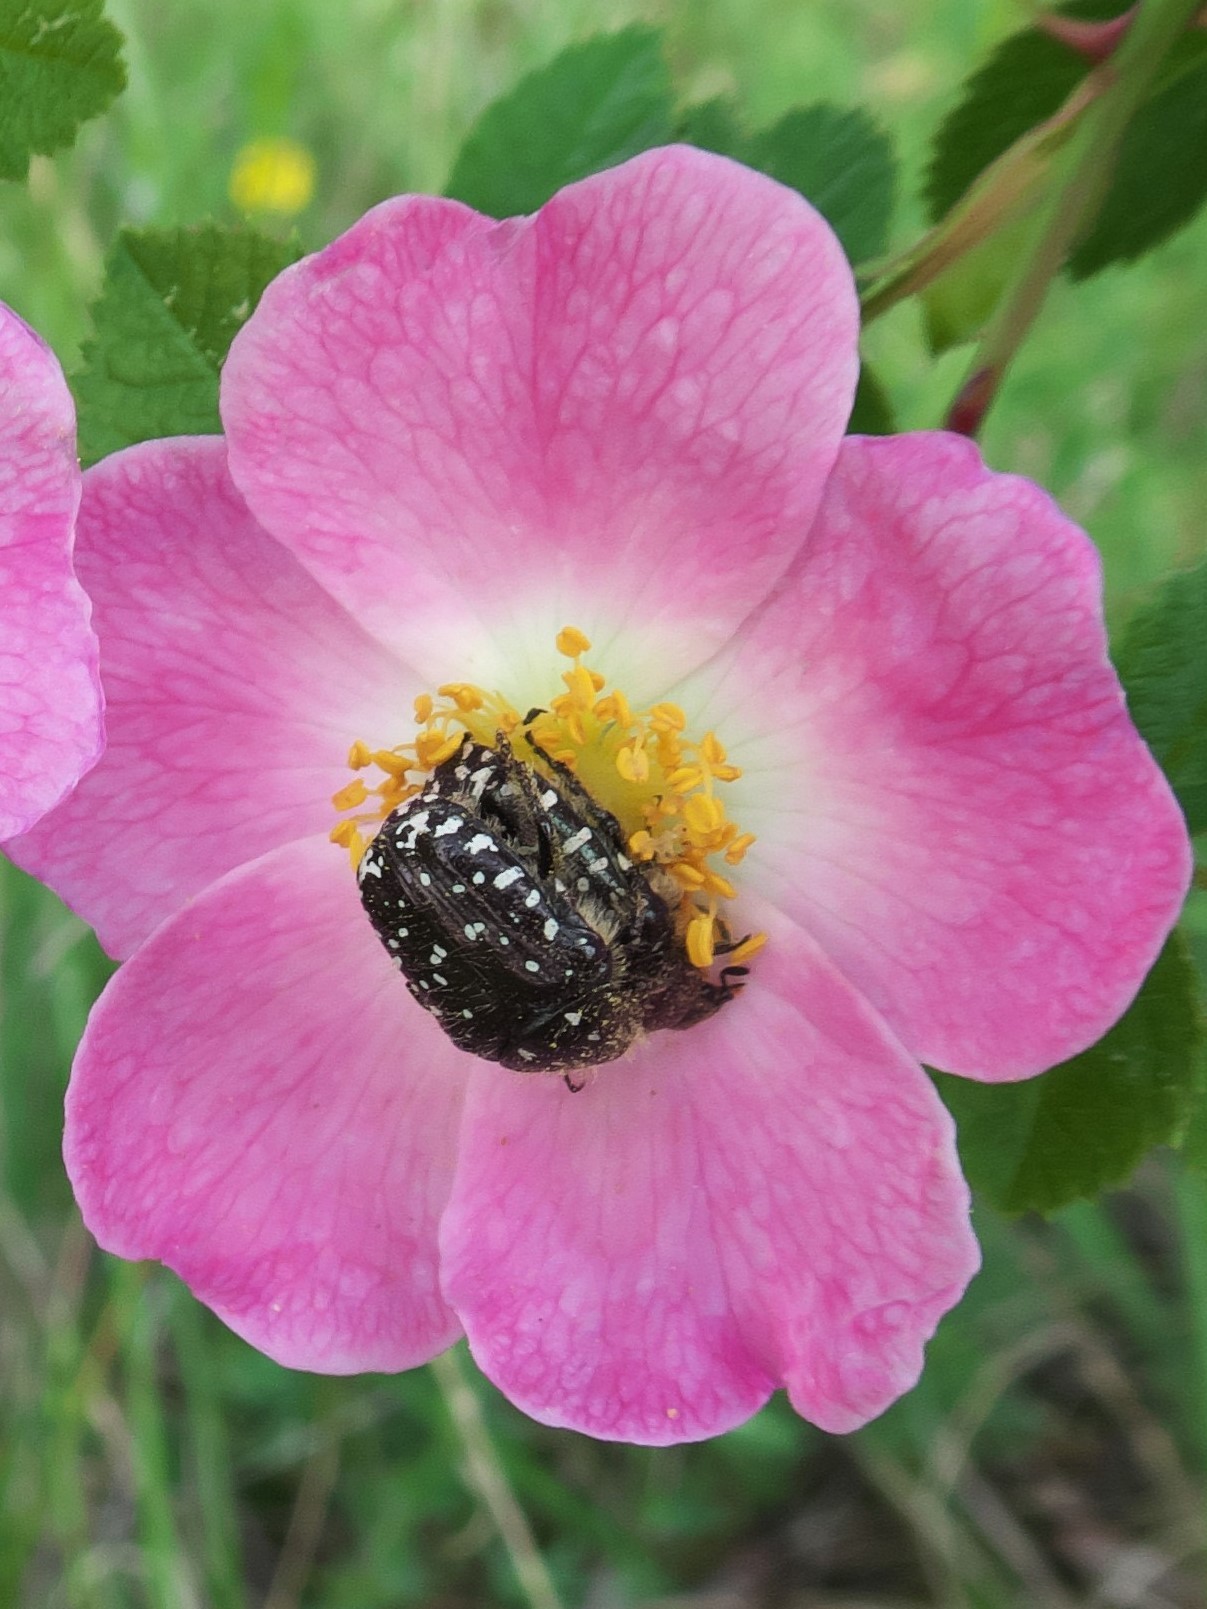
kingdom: Animalia
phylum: Arthropoda
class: Insecta
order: Coleoptera
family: Scarabaeidae
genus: Oxythyrea
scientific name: Oxythyrea funesta
